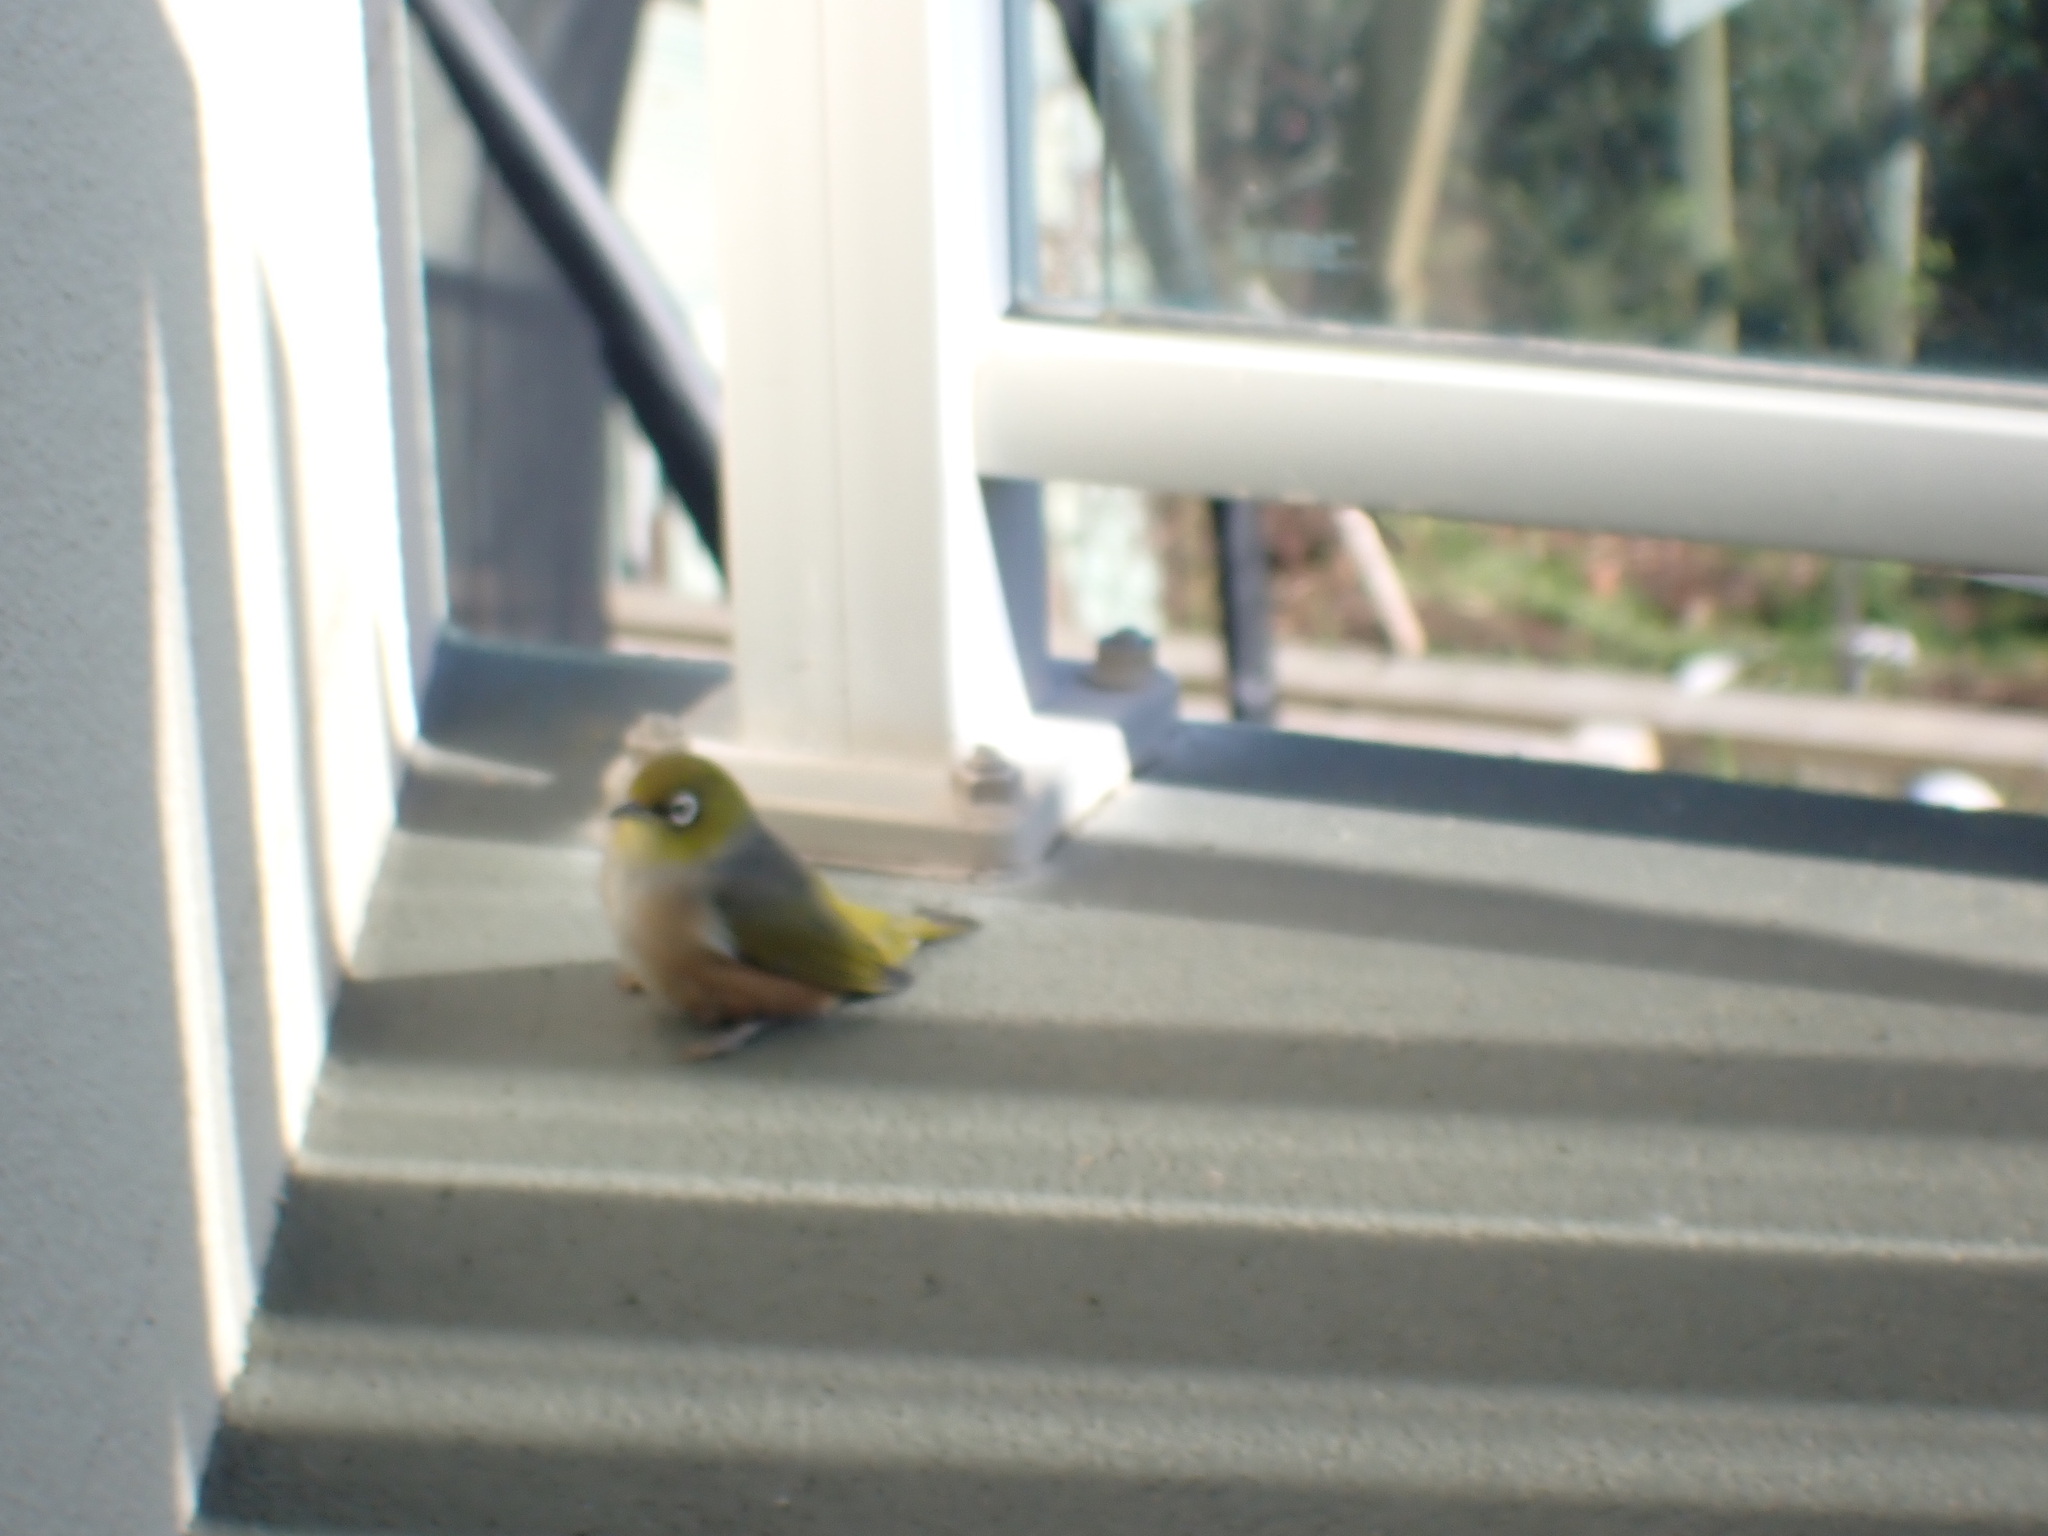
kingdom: Animalia
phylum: Chordata
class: Aves
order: Passeriformes
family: Zosteropidae
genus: Zosterops
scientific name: Zosterops lateralis
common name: Silvereye
